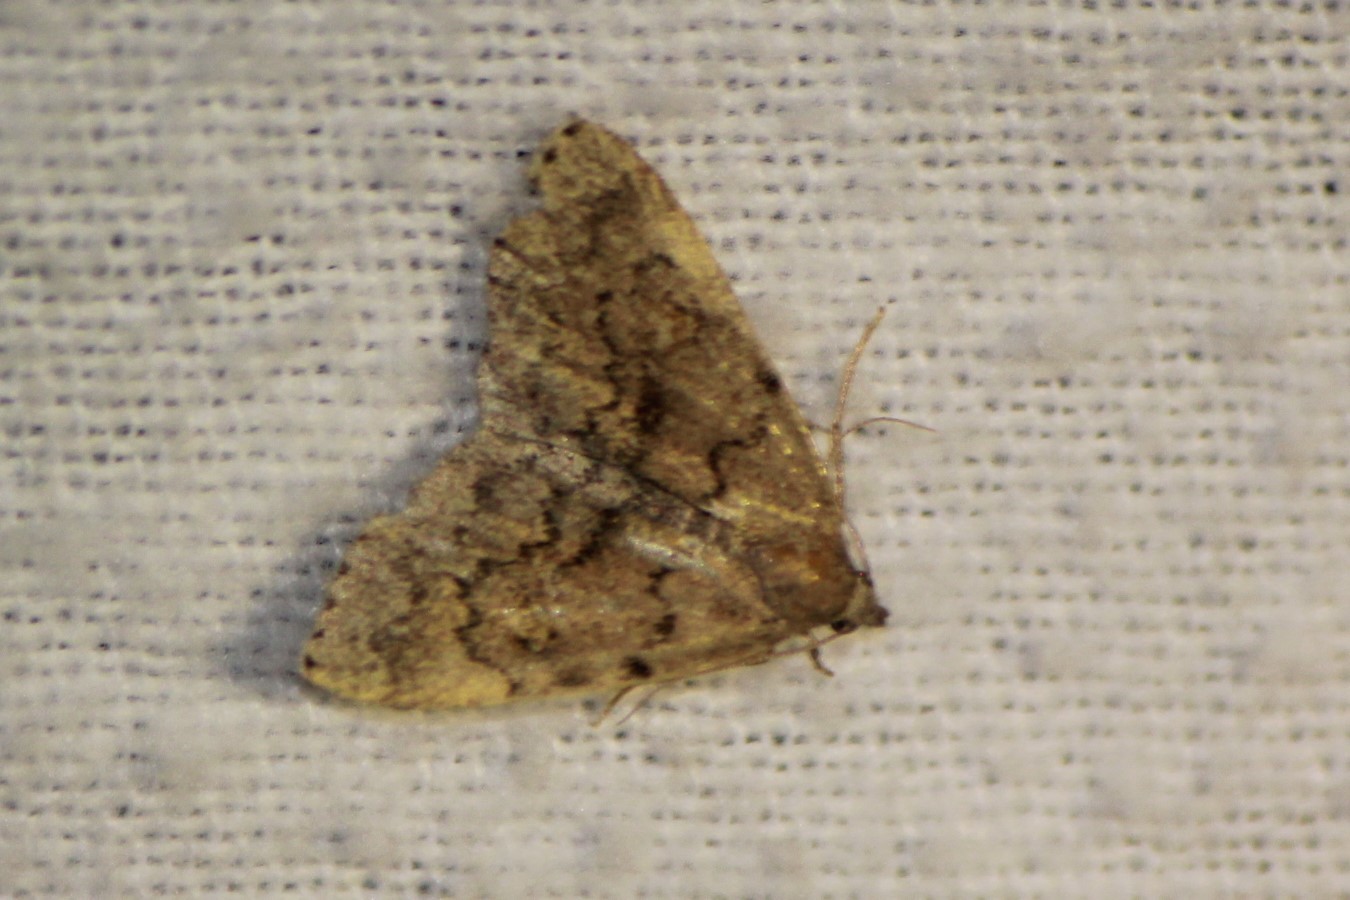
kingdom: Animalia
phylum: Arthropoda
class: Insecta
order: Lepidoptera
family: Erebidae
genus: Idia
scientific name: Idia aemula
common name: Common idia moth
